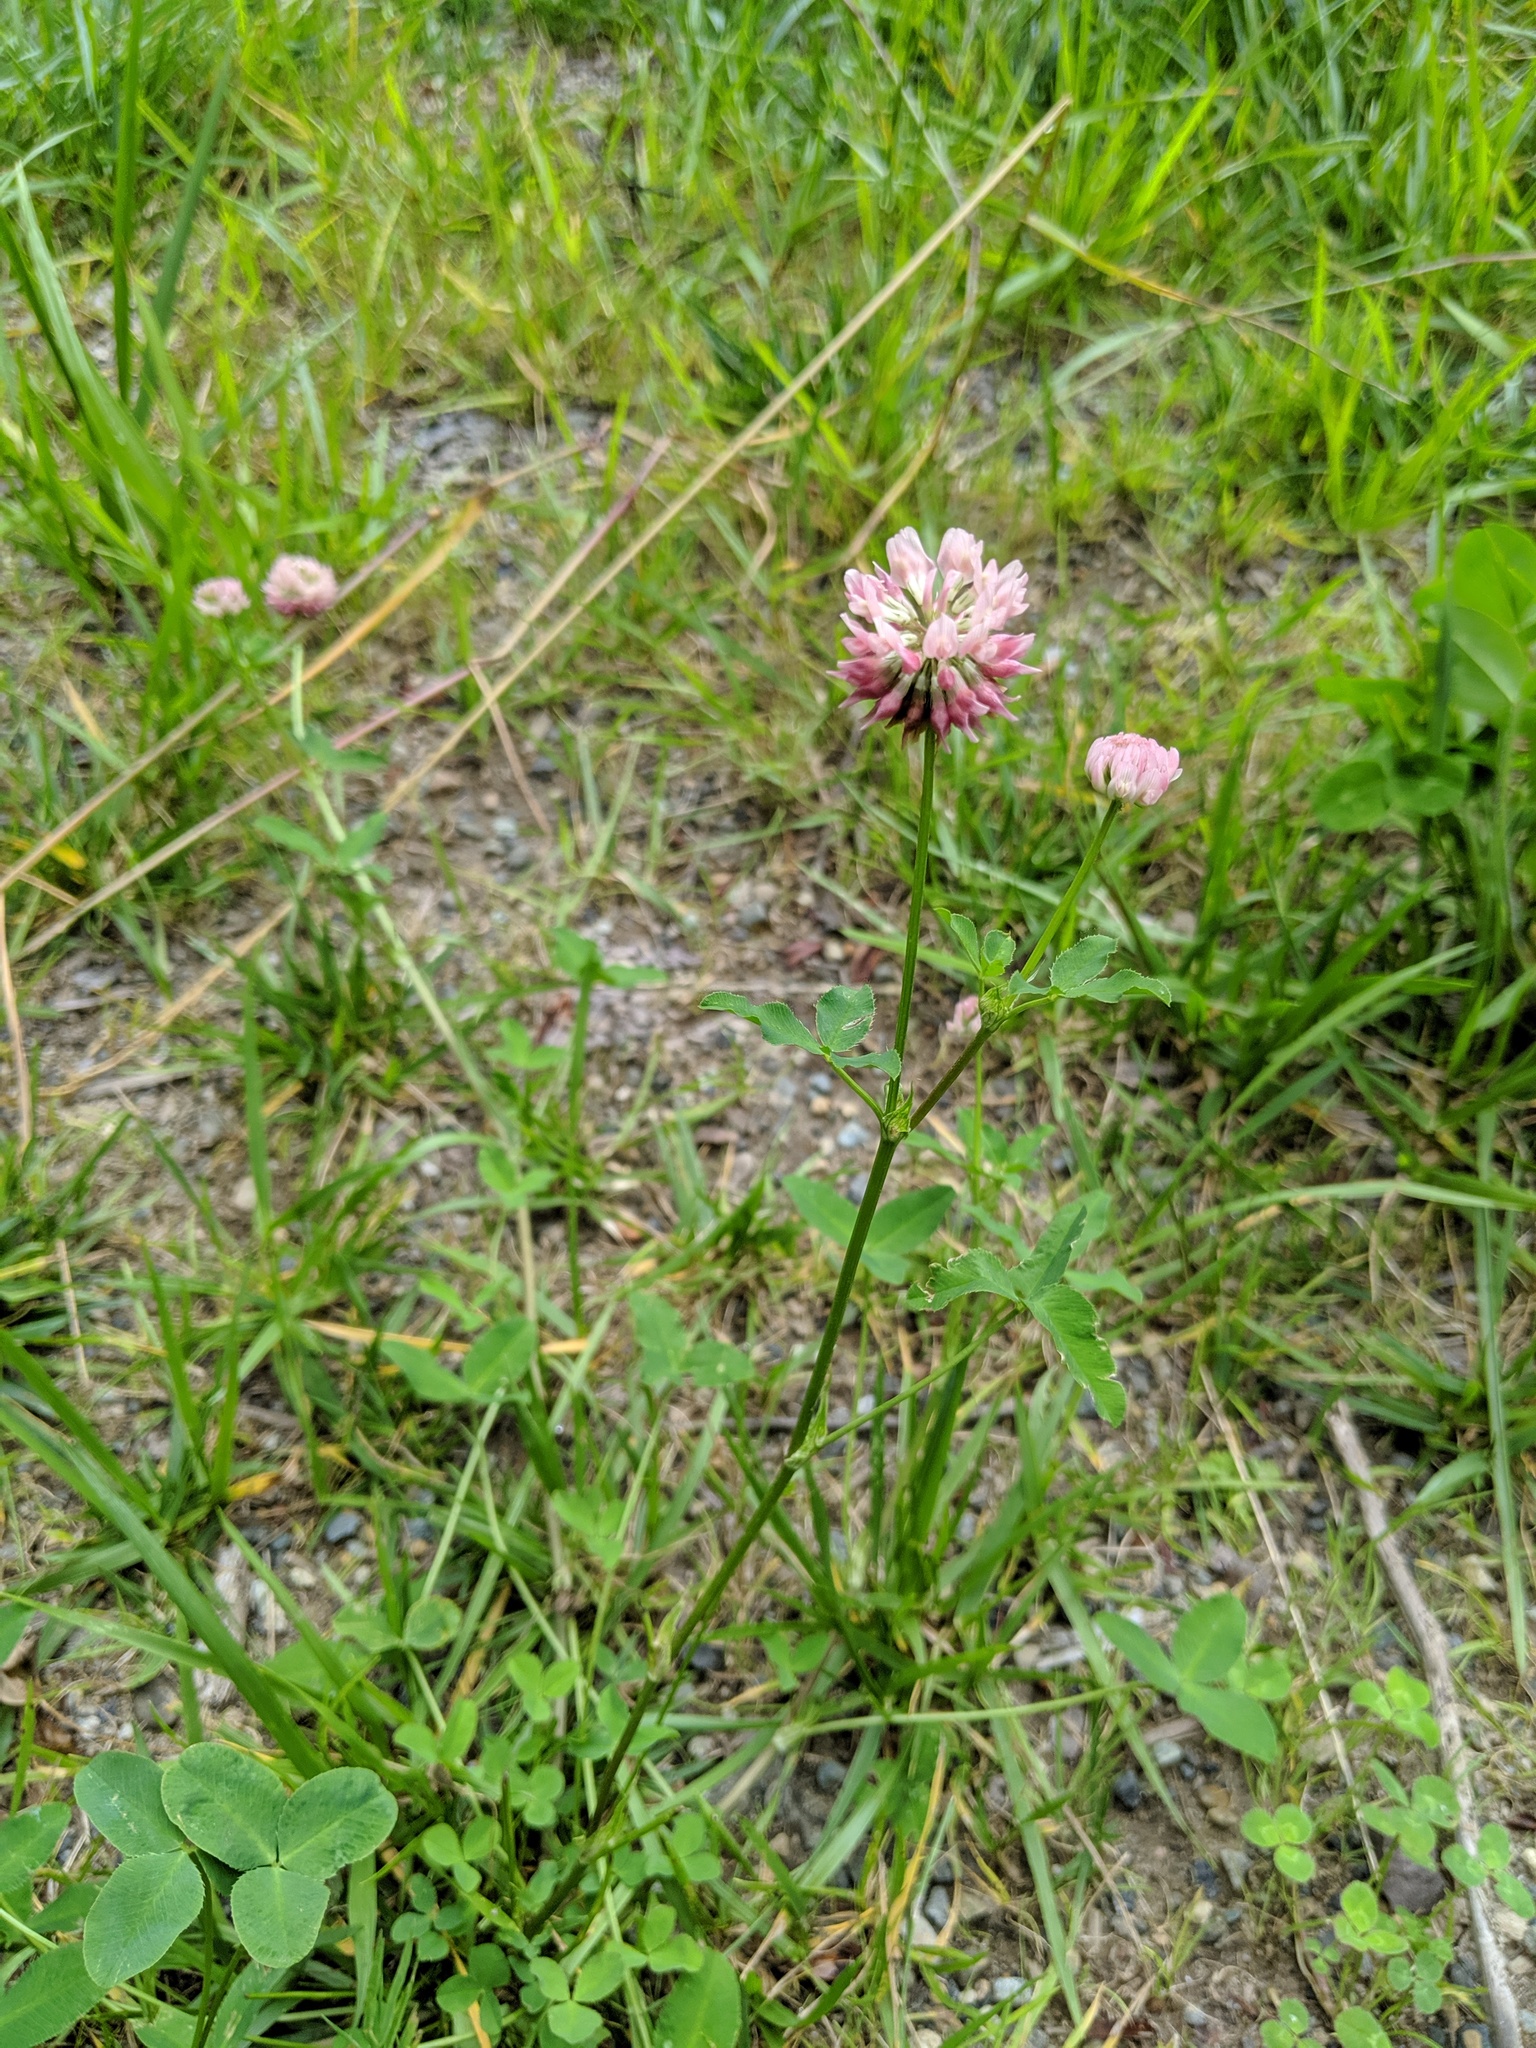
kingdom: Plantae
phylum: Tracheophyta
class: Magnoliopsida
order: Fabales
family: Fabaceae
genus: Trifolium
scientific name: Trifolium hybridum
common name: Alsike clover
